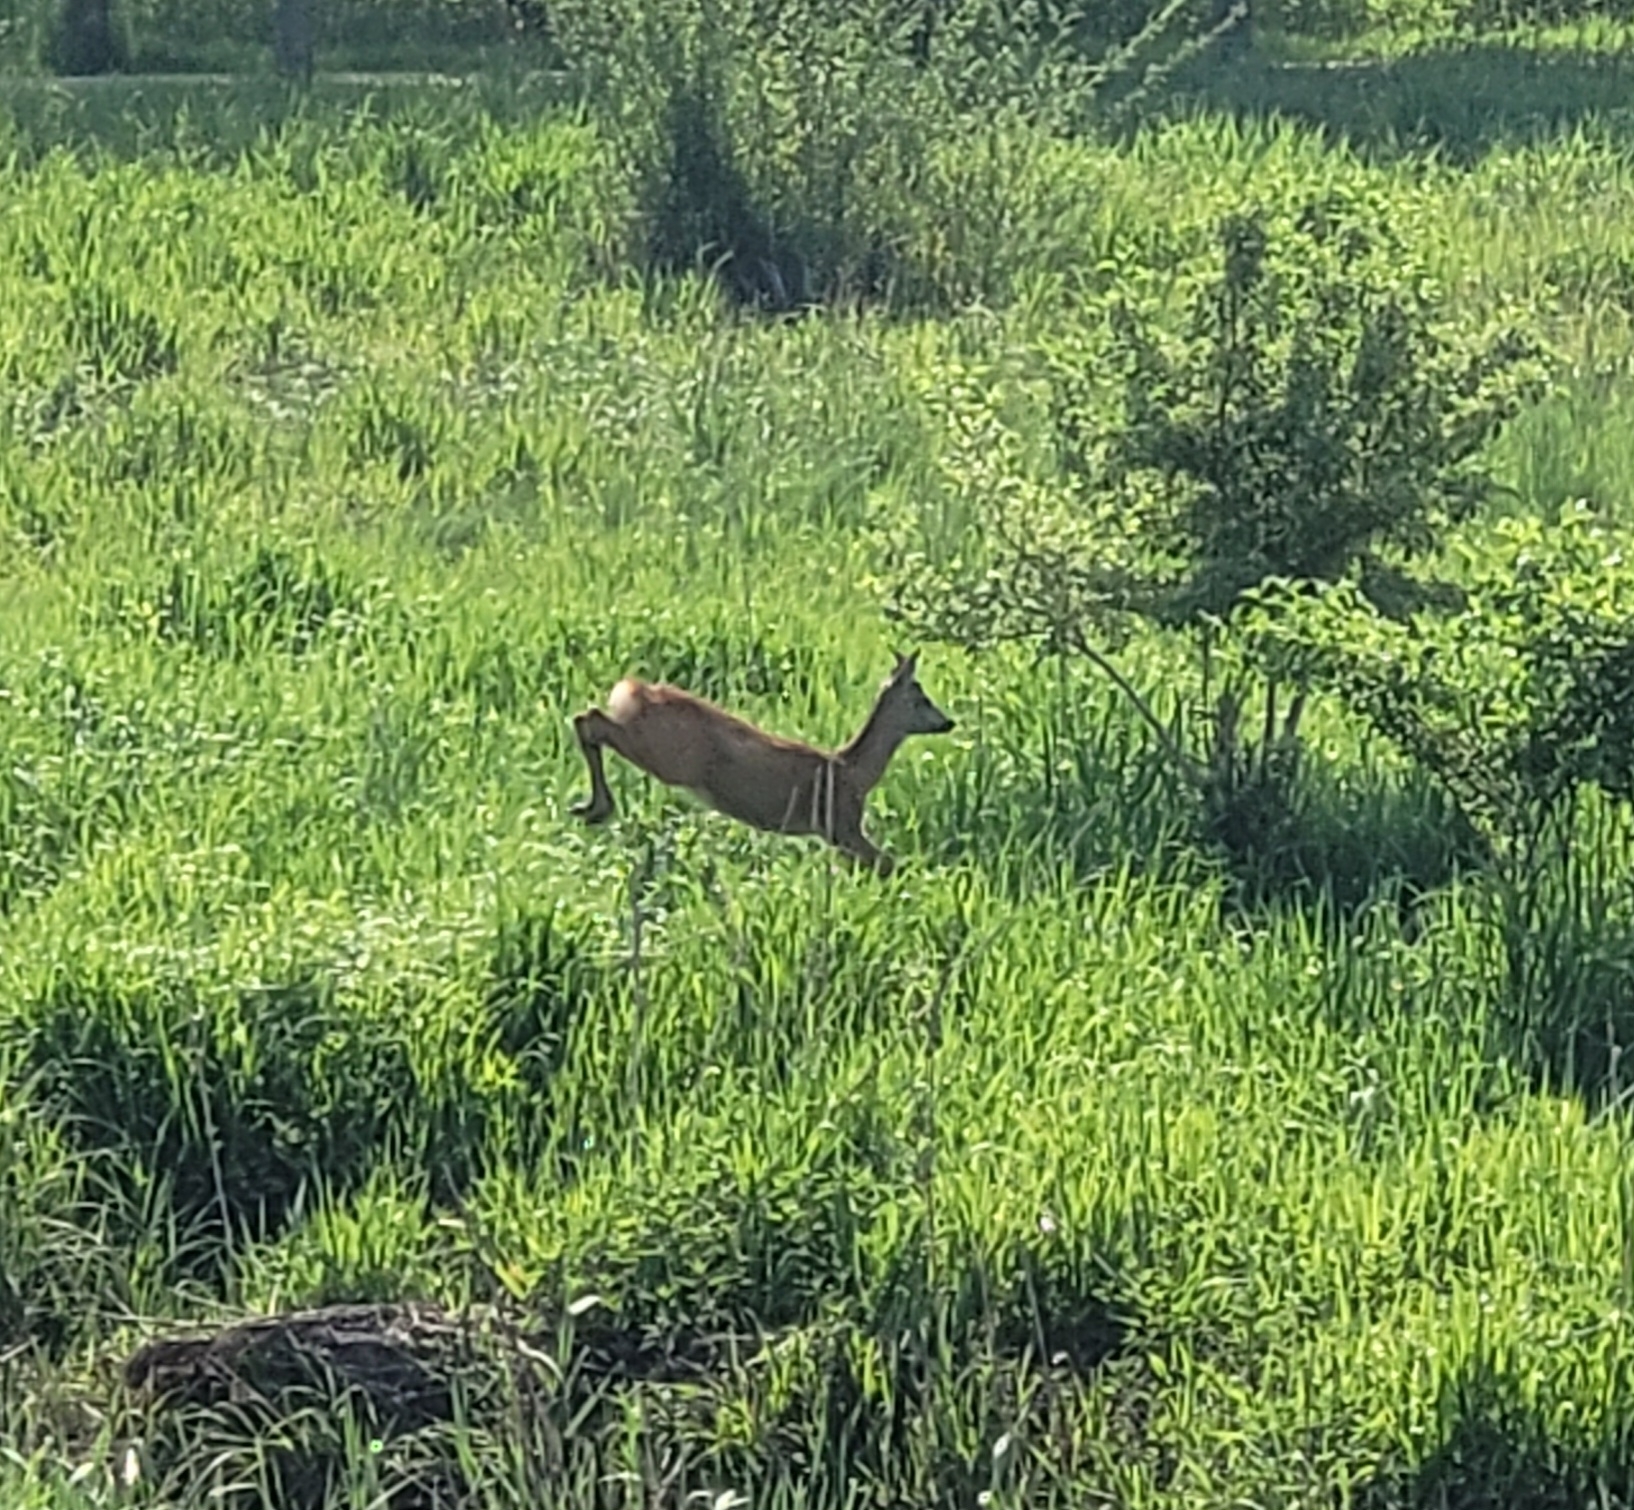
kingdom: Animalia
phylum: Chordata
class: Mammalia
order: Artiodactyla
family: Cervidae
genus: Capreolus
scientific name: Capreolus capreolus
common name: Western roe deer
